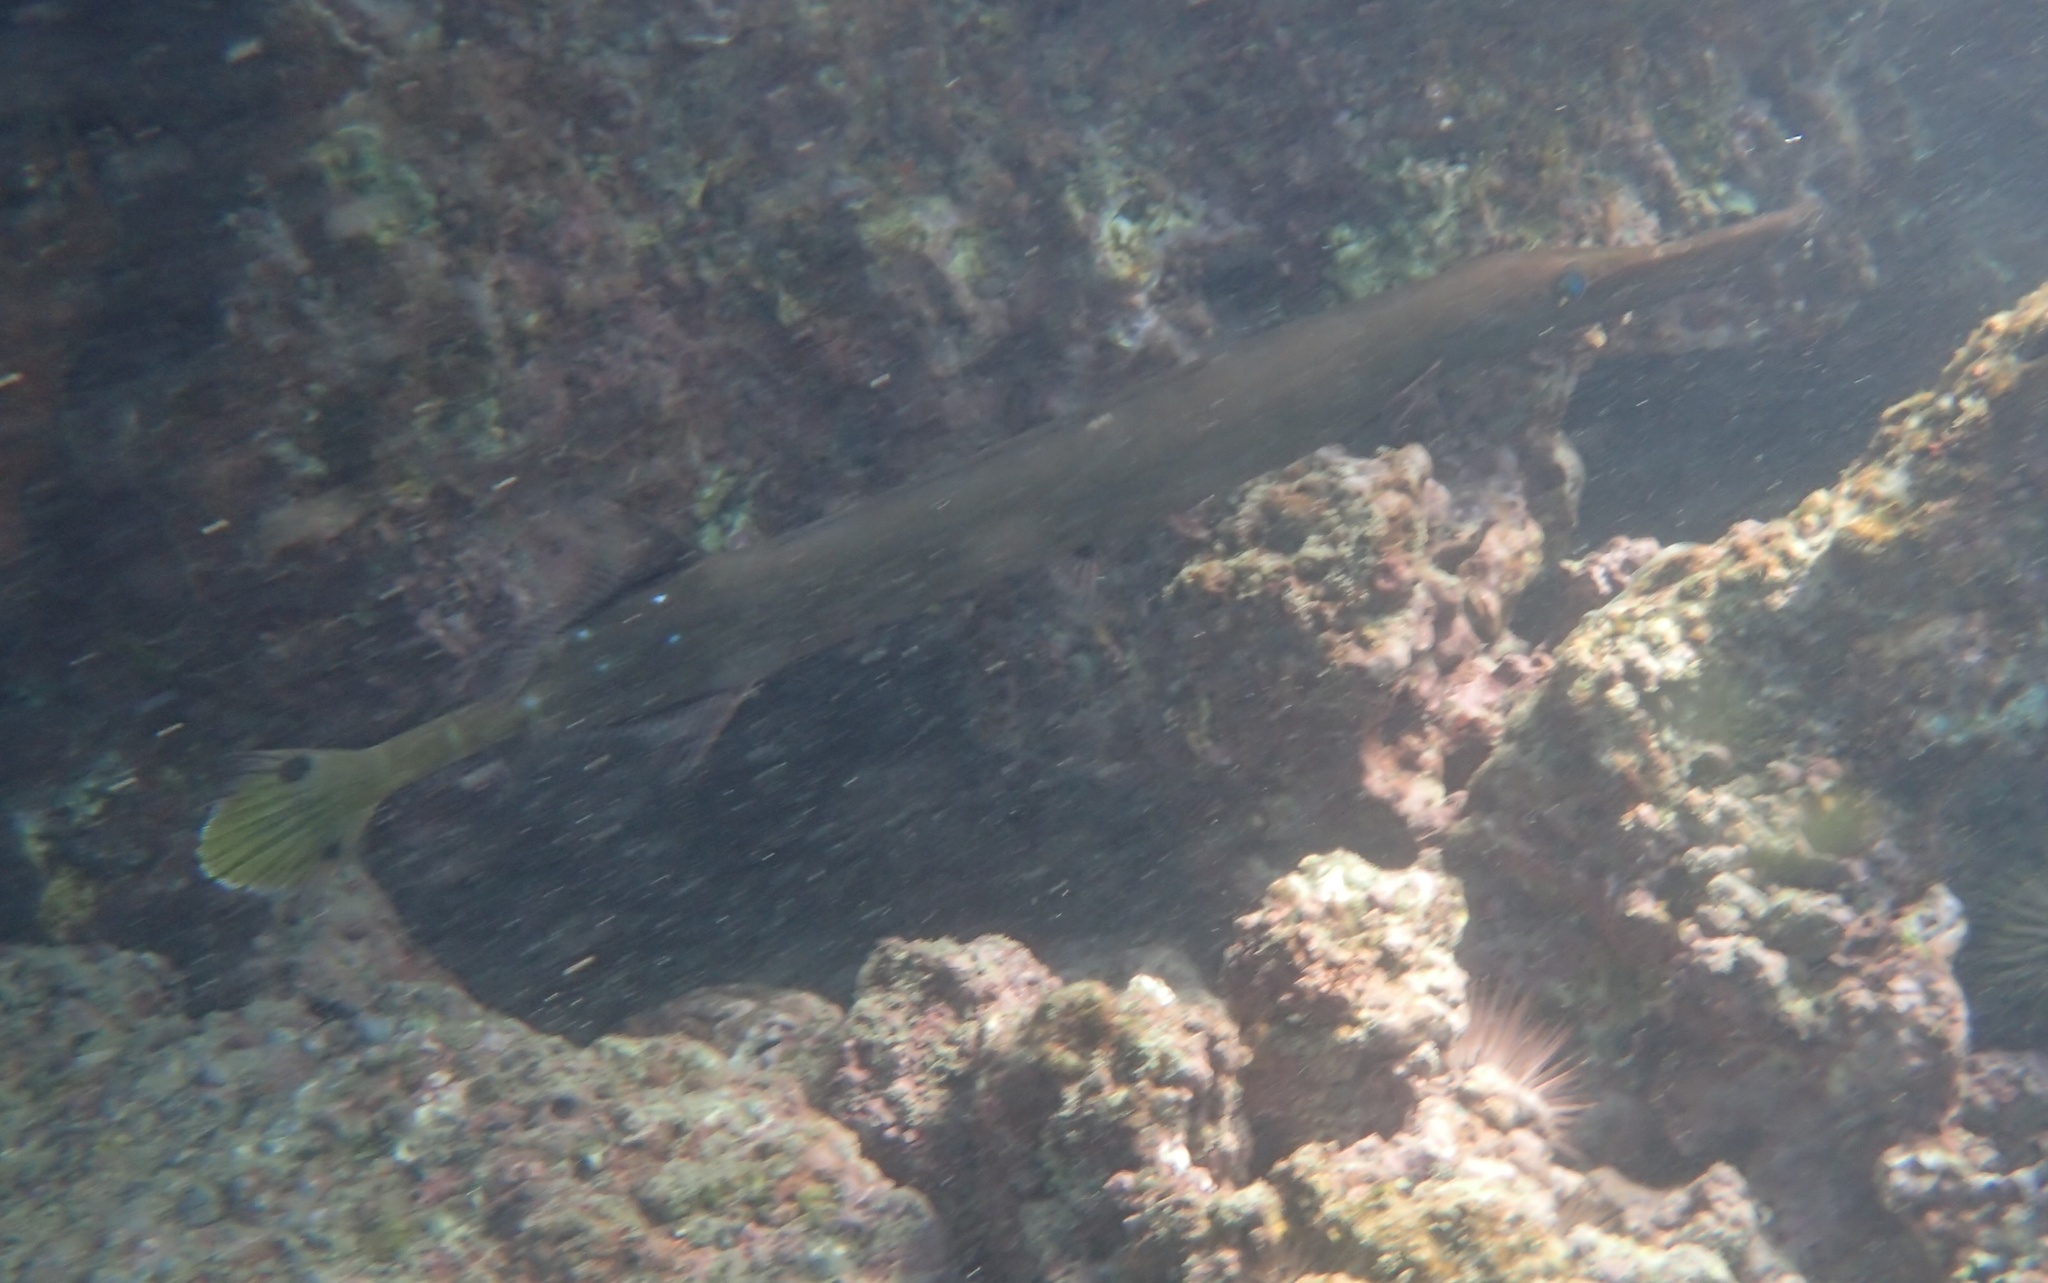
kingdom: Animalia
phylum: Chordata
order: Syngnathiformes
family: Aulostomidae
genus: Aulostomus
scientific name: Aulostomus chinensis
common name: Chinese trumpetfish
